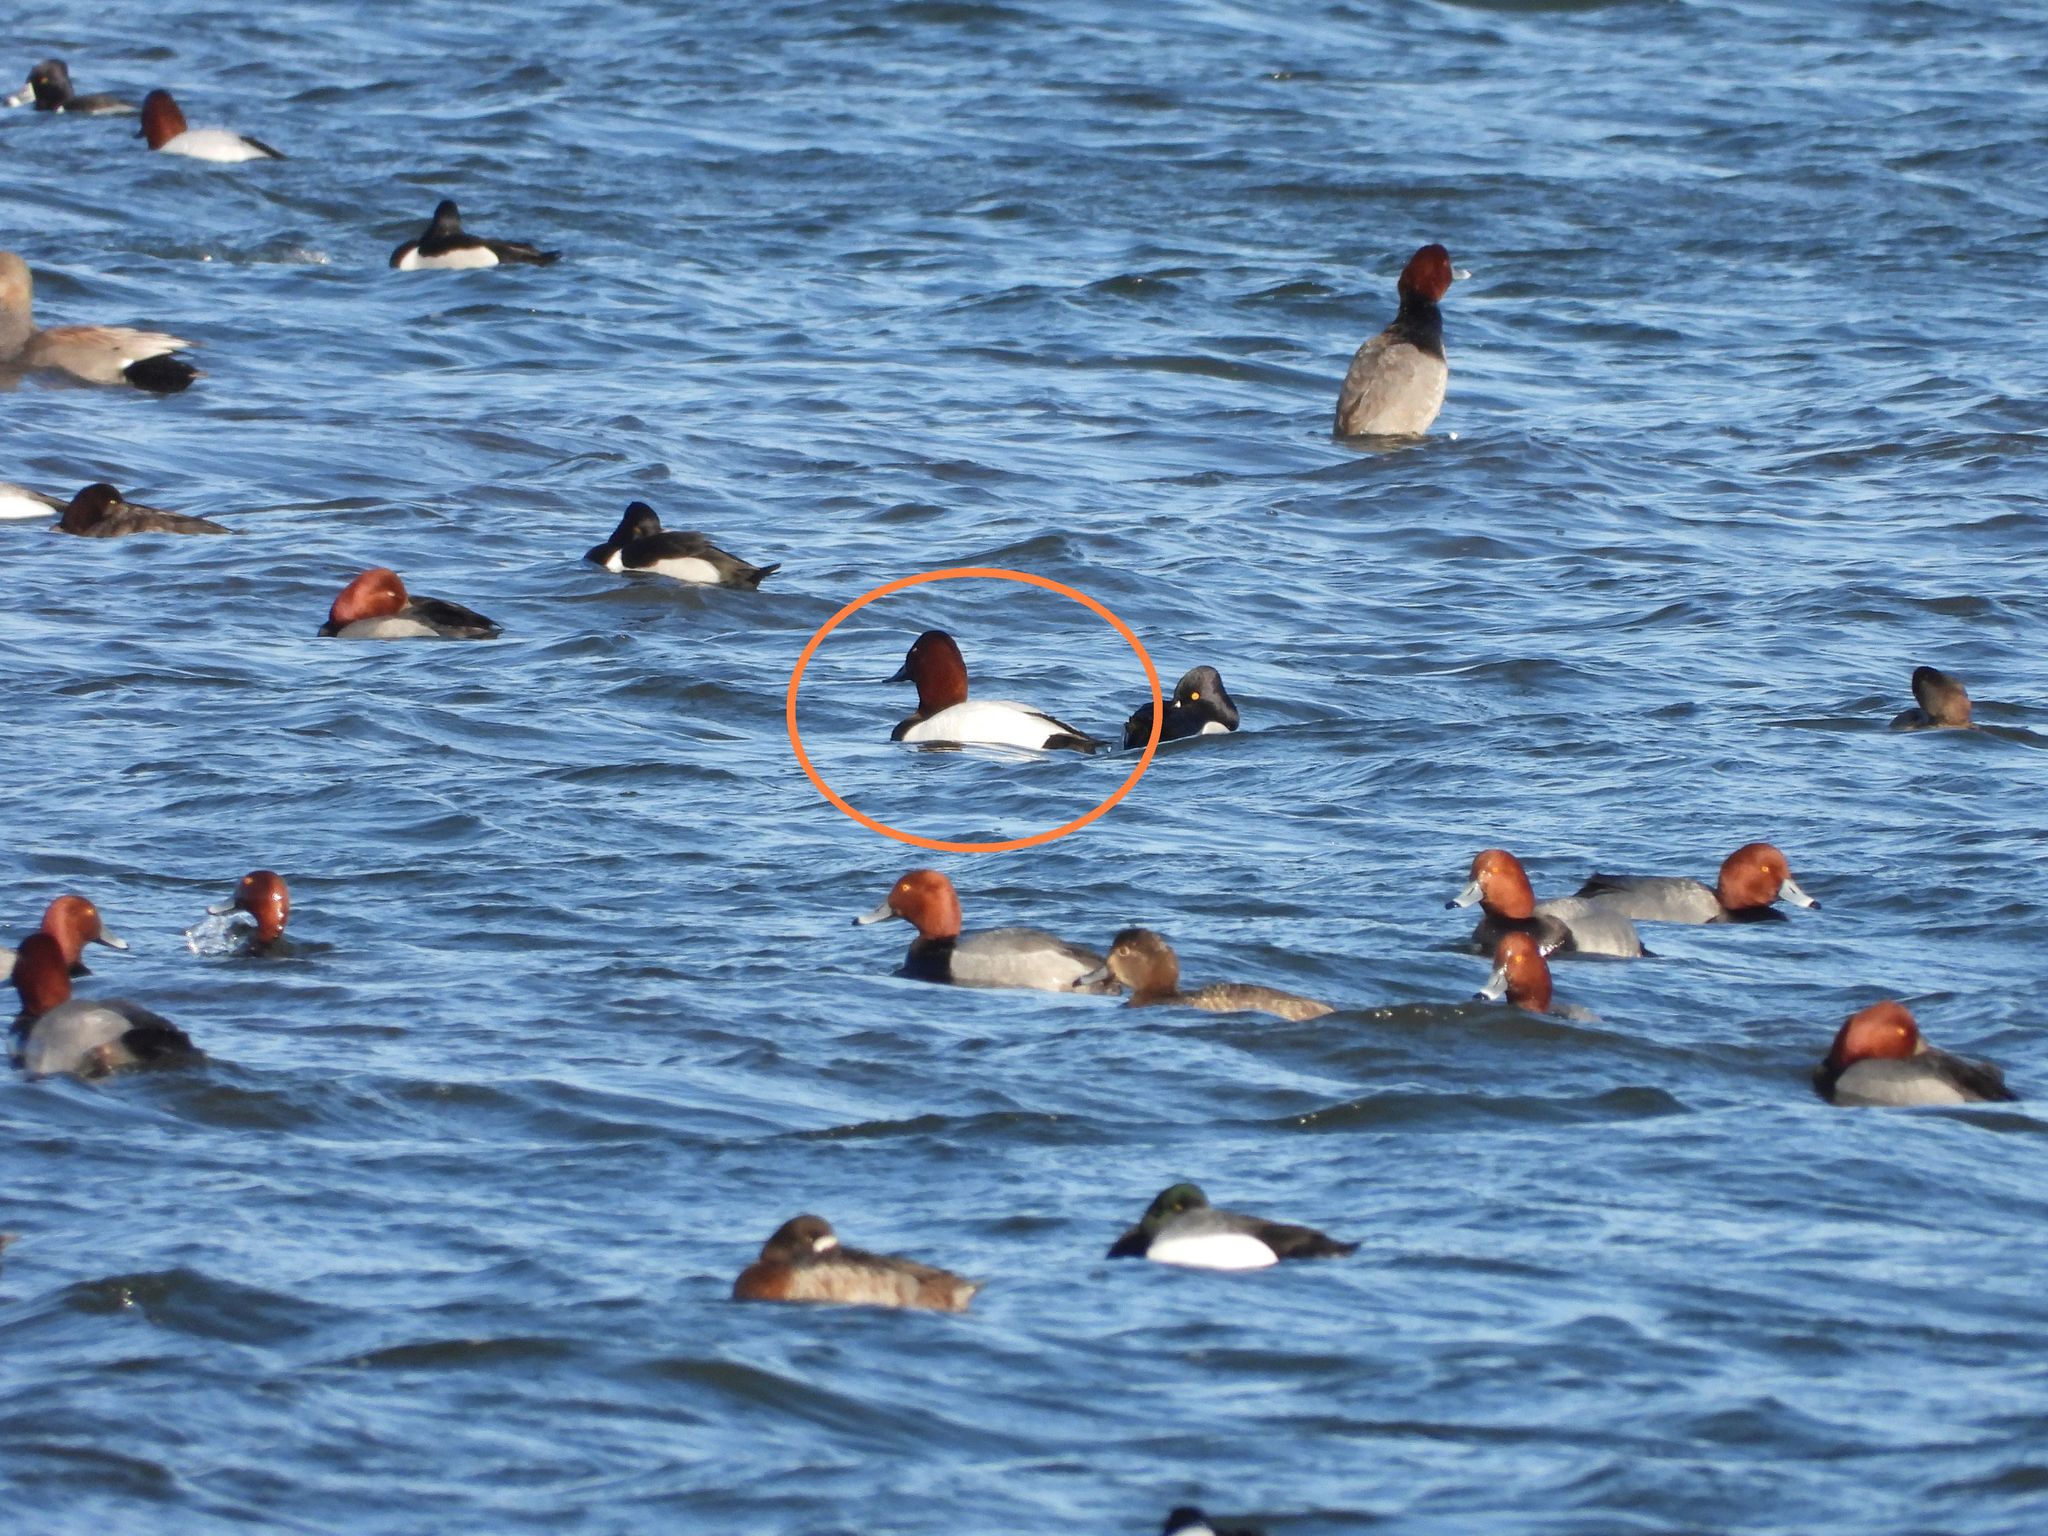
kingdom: Animalia
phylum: Chordata
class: Aves
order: Anseriformes
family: Anatidae
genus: Aythya
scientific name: Aythya valisineria
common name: Canvasback
